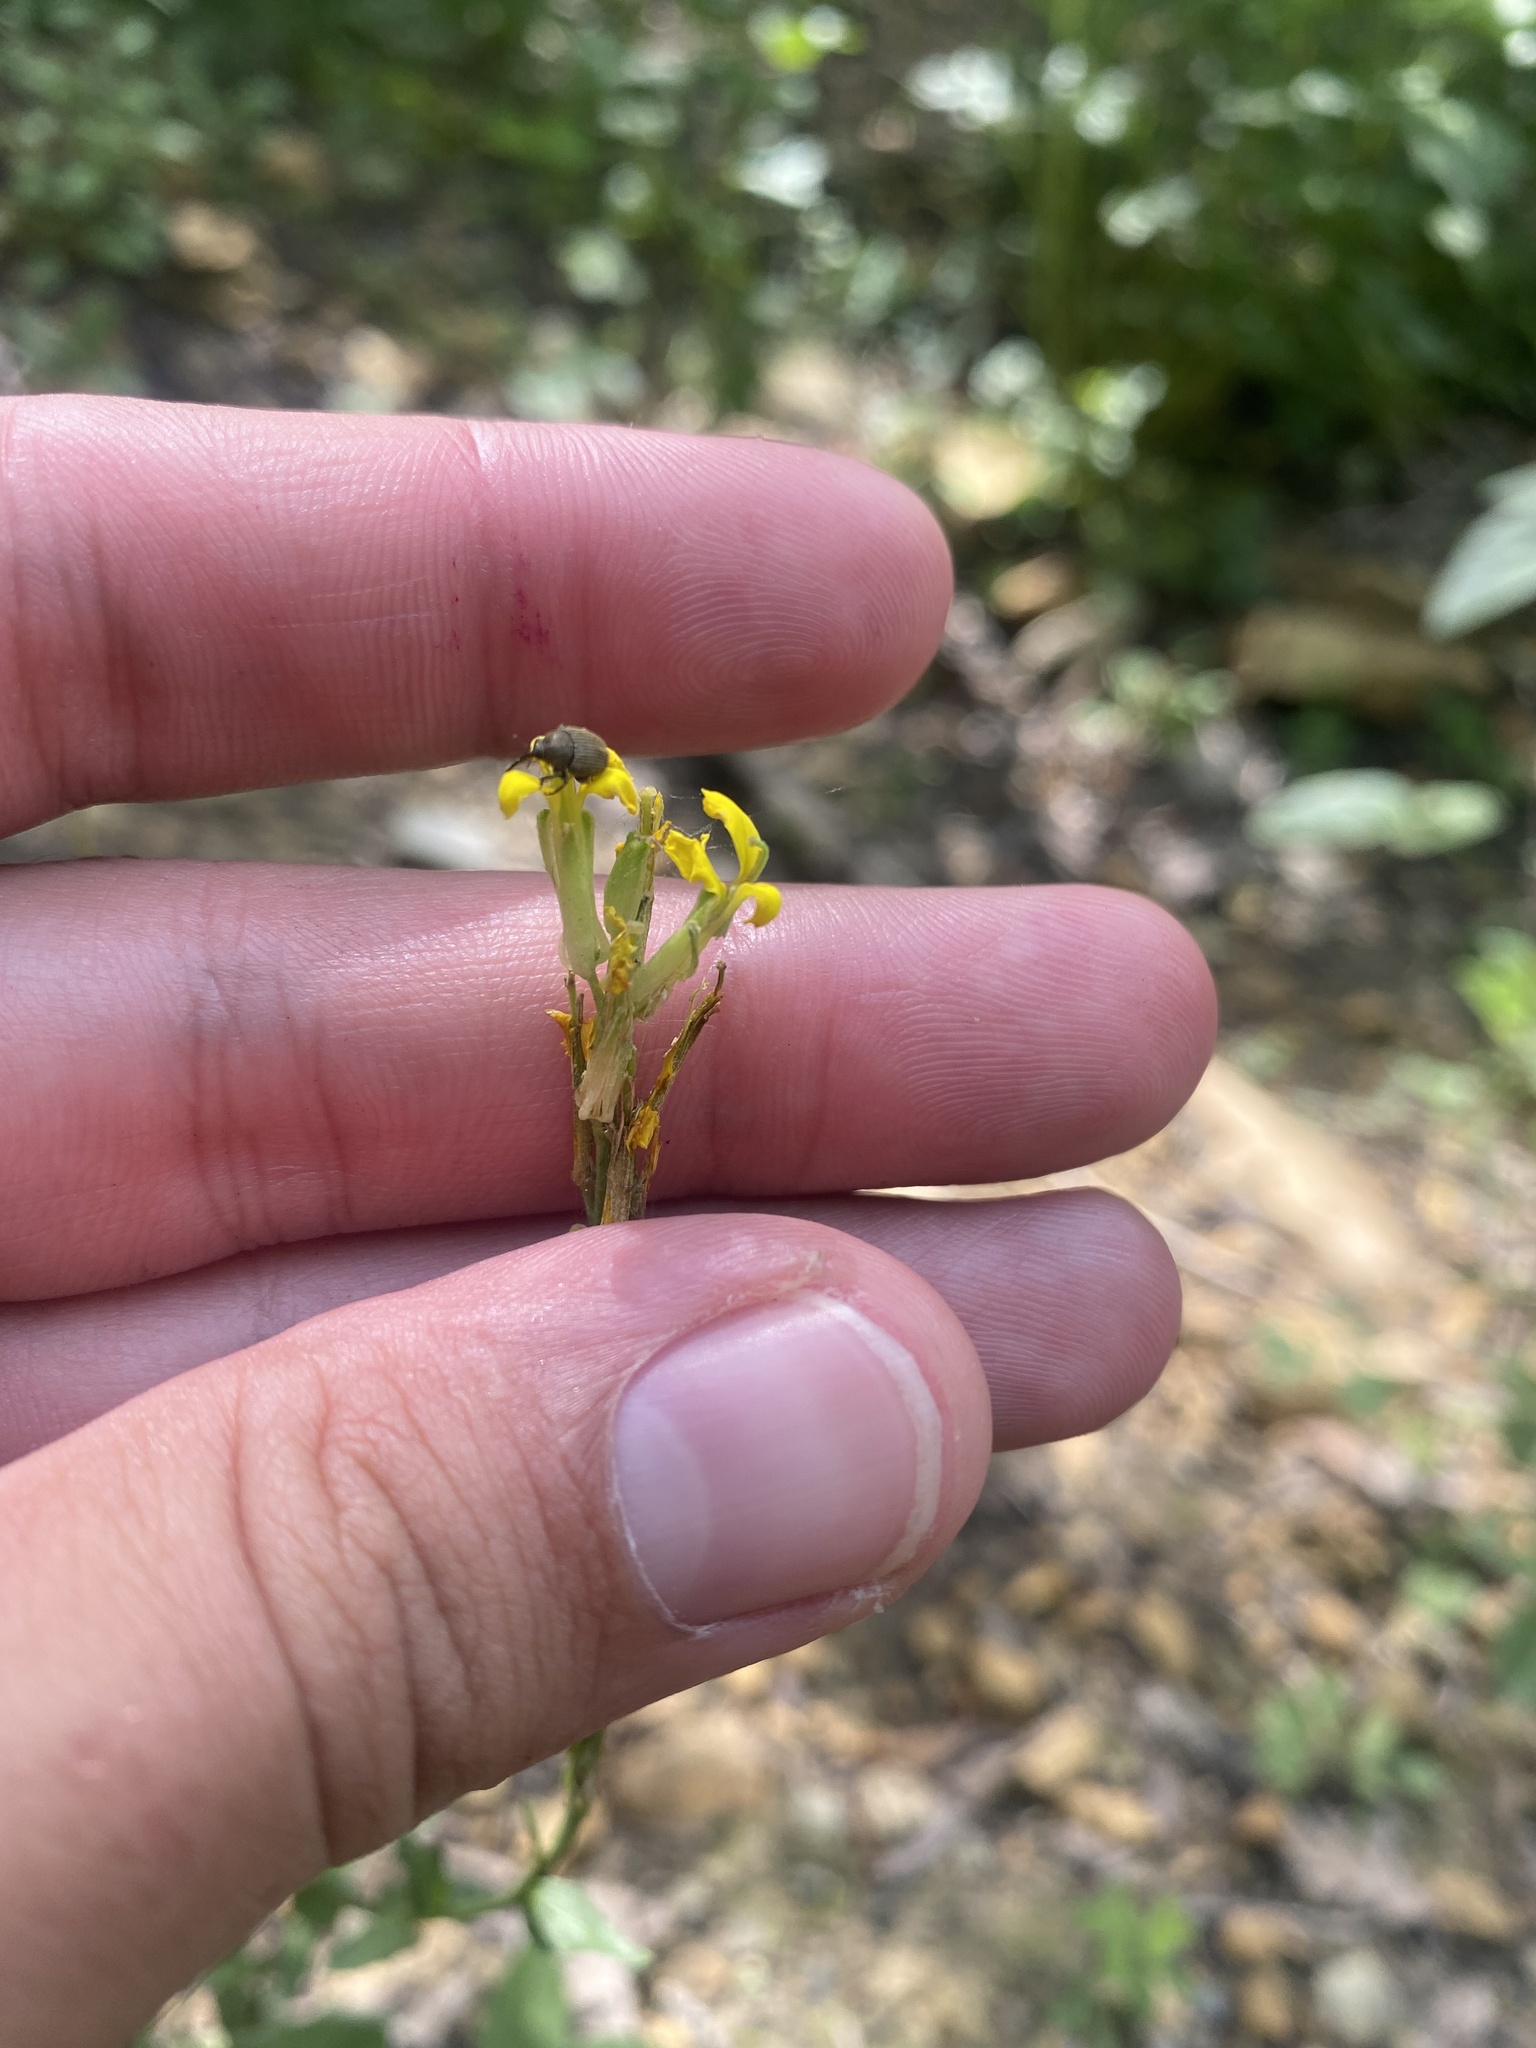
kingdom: Plantae
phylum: Tracheophyta
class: Magnoliopsida
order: Brassicales
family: Brassicaceae
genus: Erysimum
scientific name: Erysimum cuspidatum
